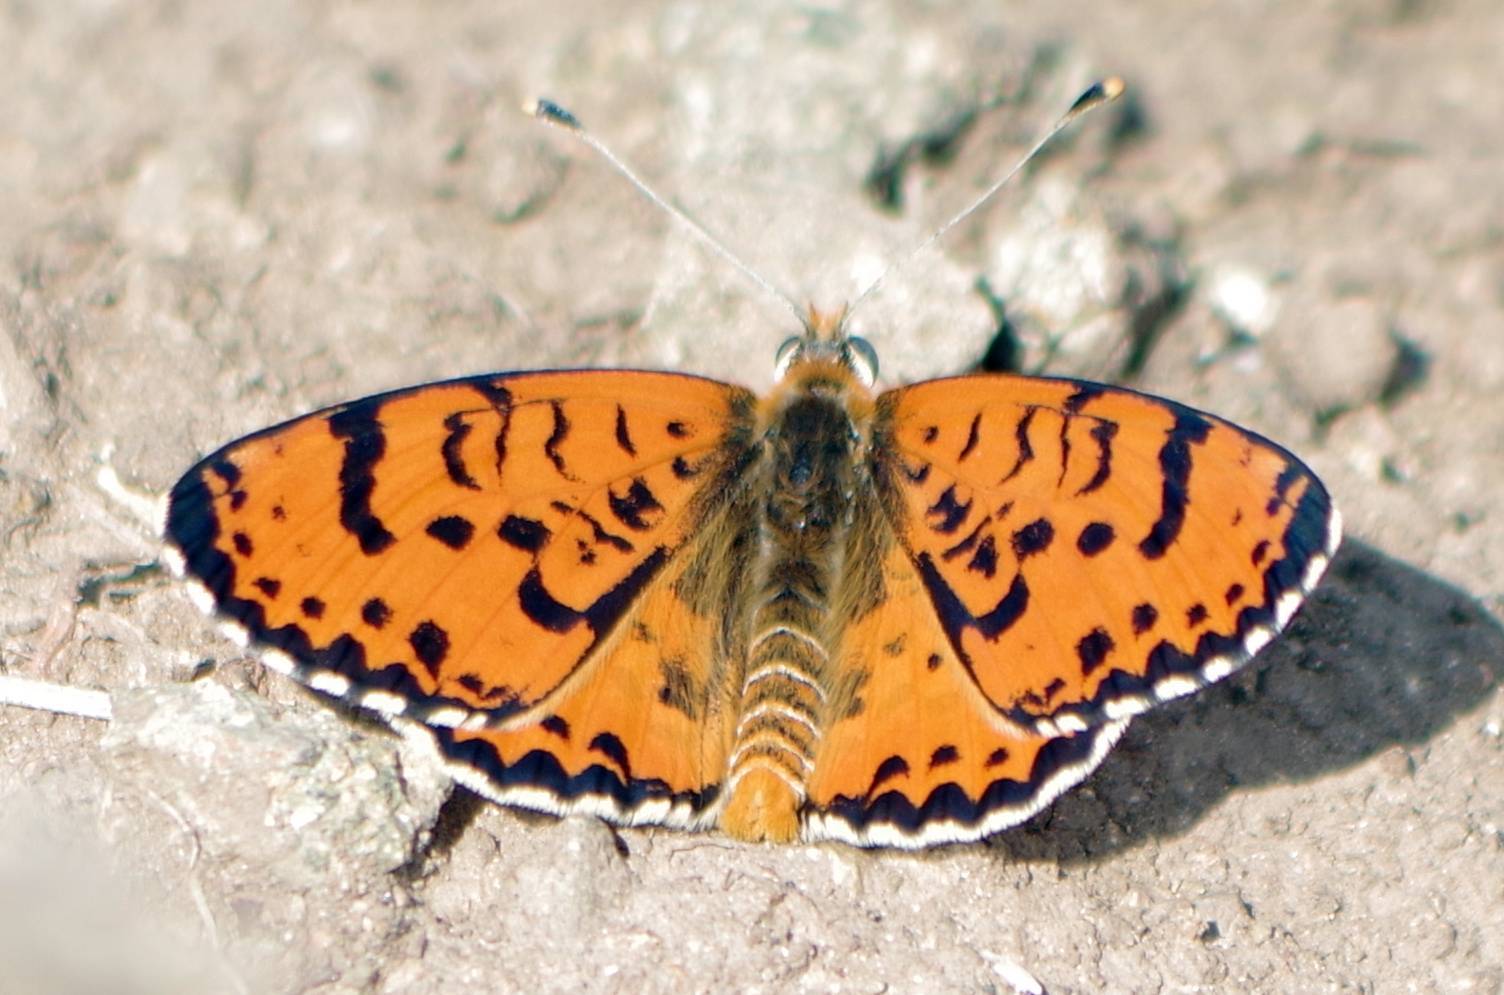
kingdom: Animalia
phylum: Arthropoda
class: Insecta
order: Lepidoptera
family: Nymphalidae
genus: Melitaea
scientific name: Melitaea didyma
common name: Spotted fritillary
